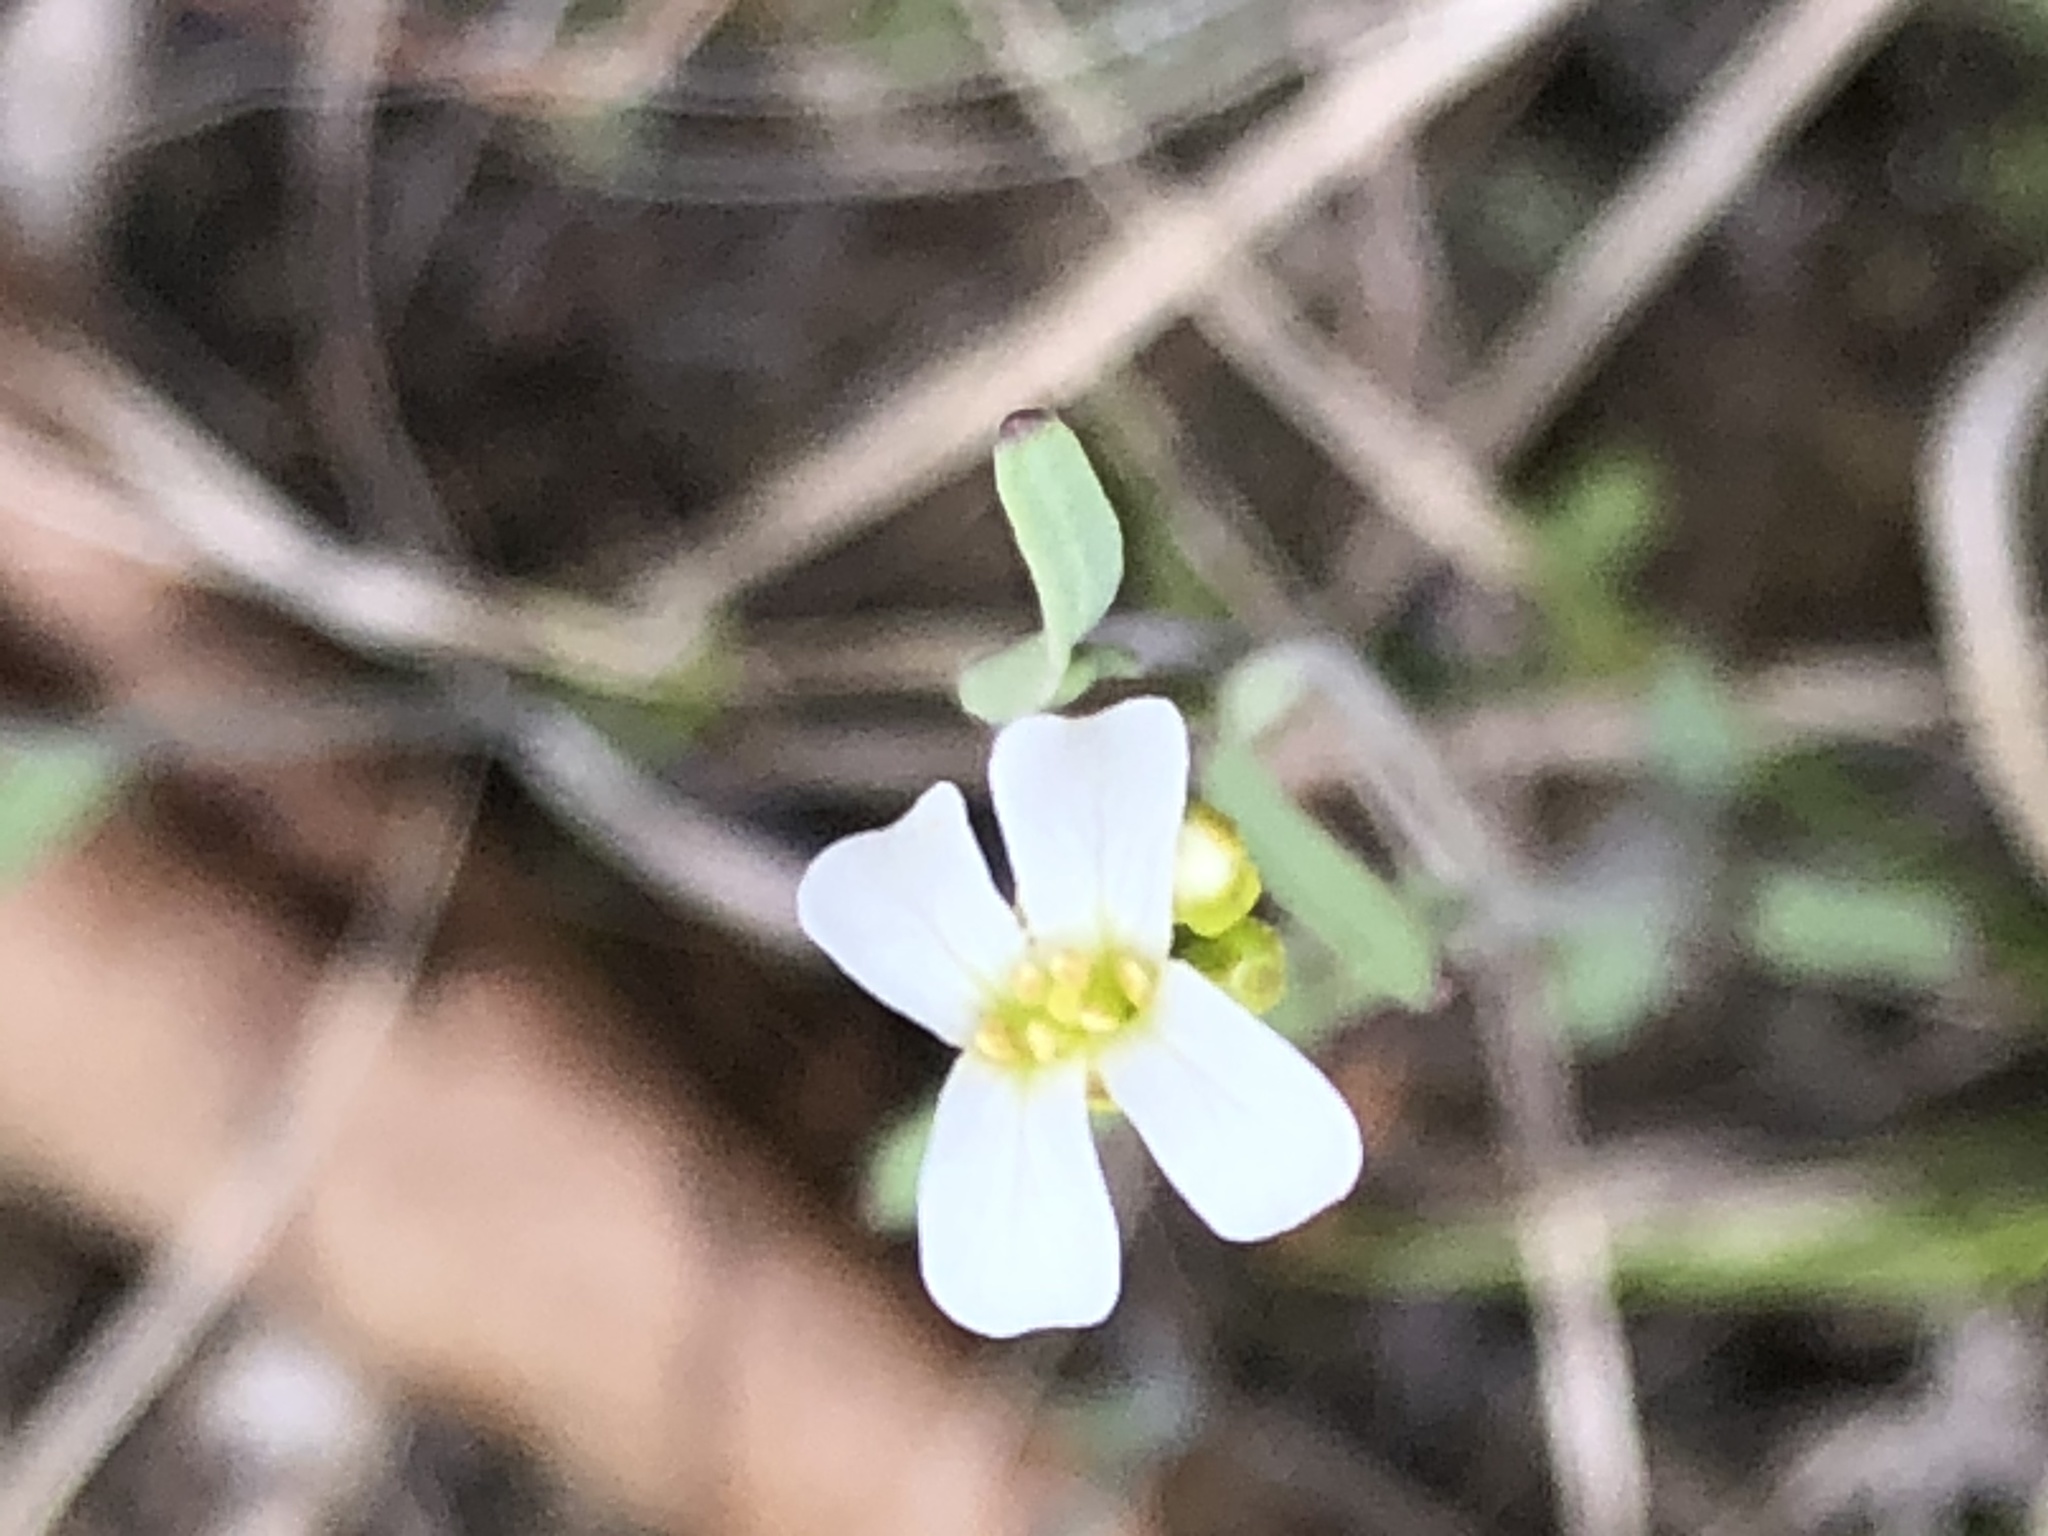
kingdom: Plantae
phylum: Tracheophyta
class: Magnoliopsida
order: Brassicales
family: Brassicaceae
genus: Arabidopsis
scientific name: Arabidopsis lyrata
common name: Lyrate rockcress
